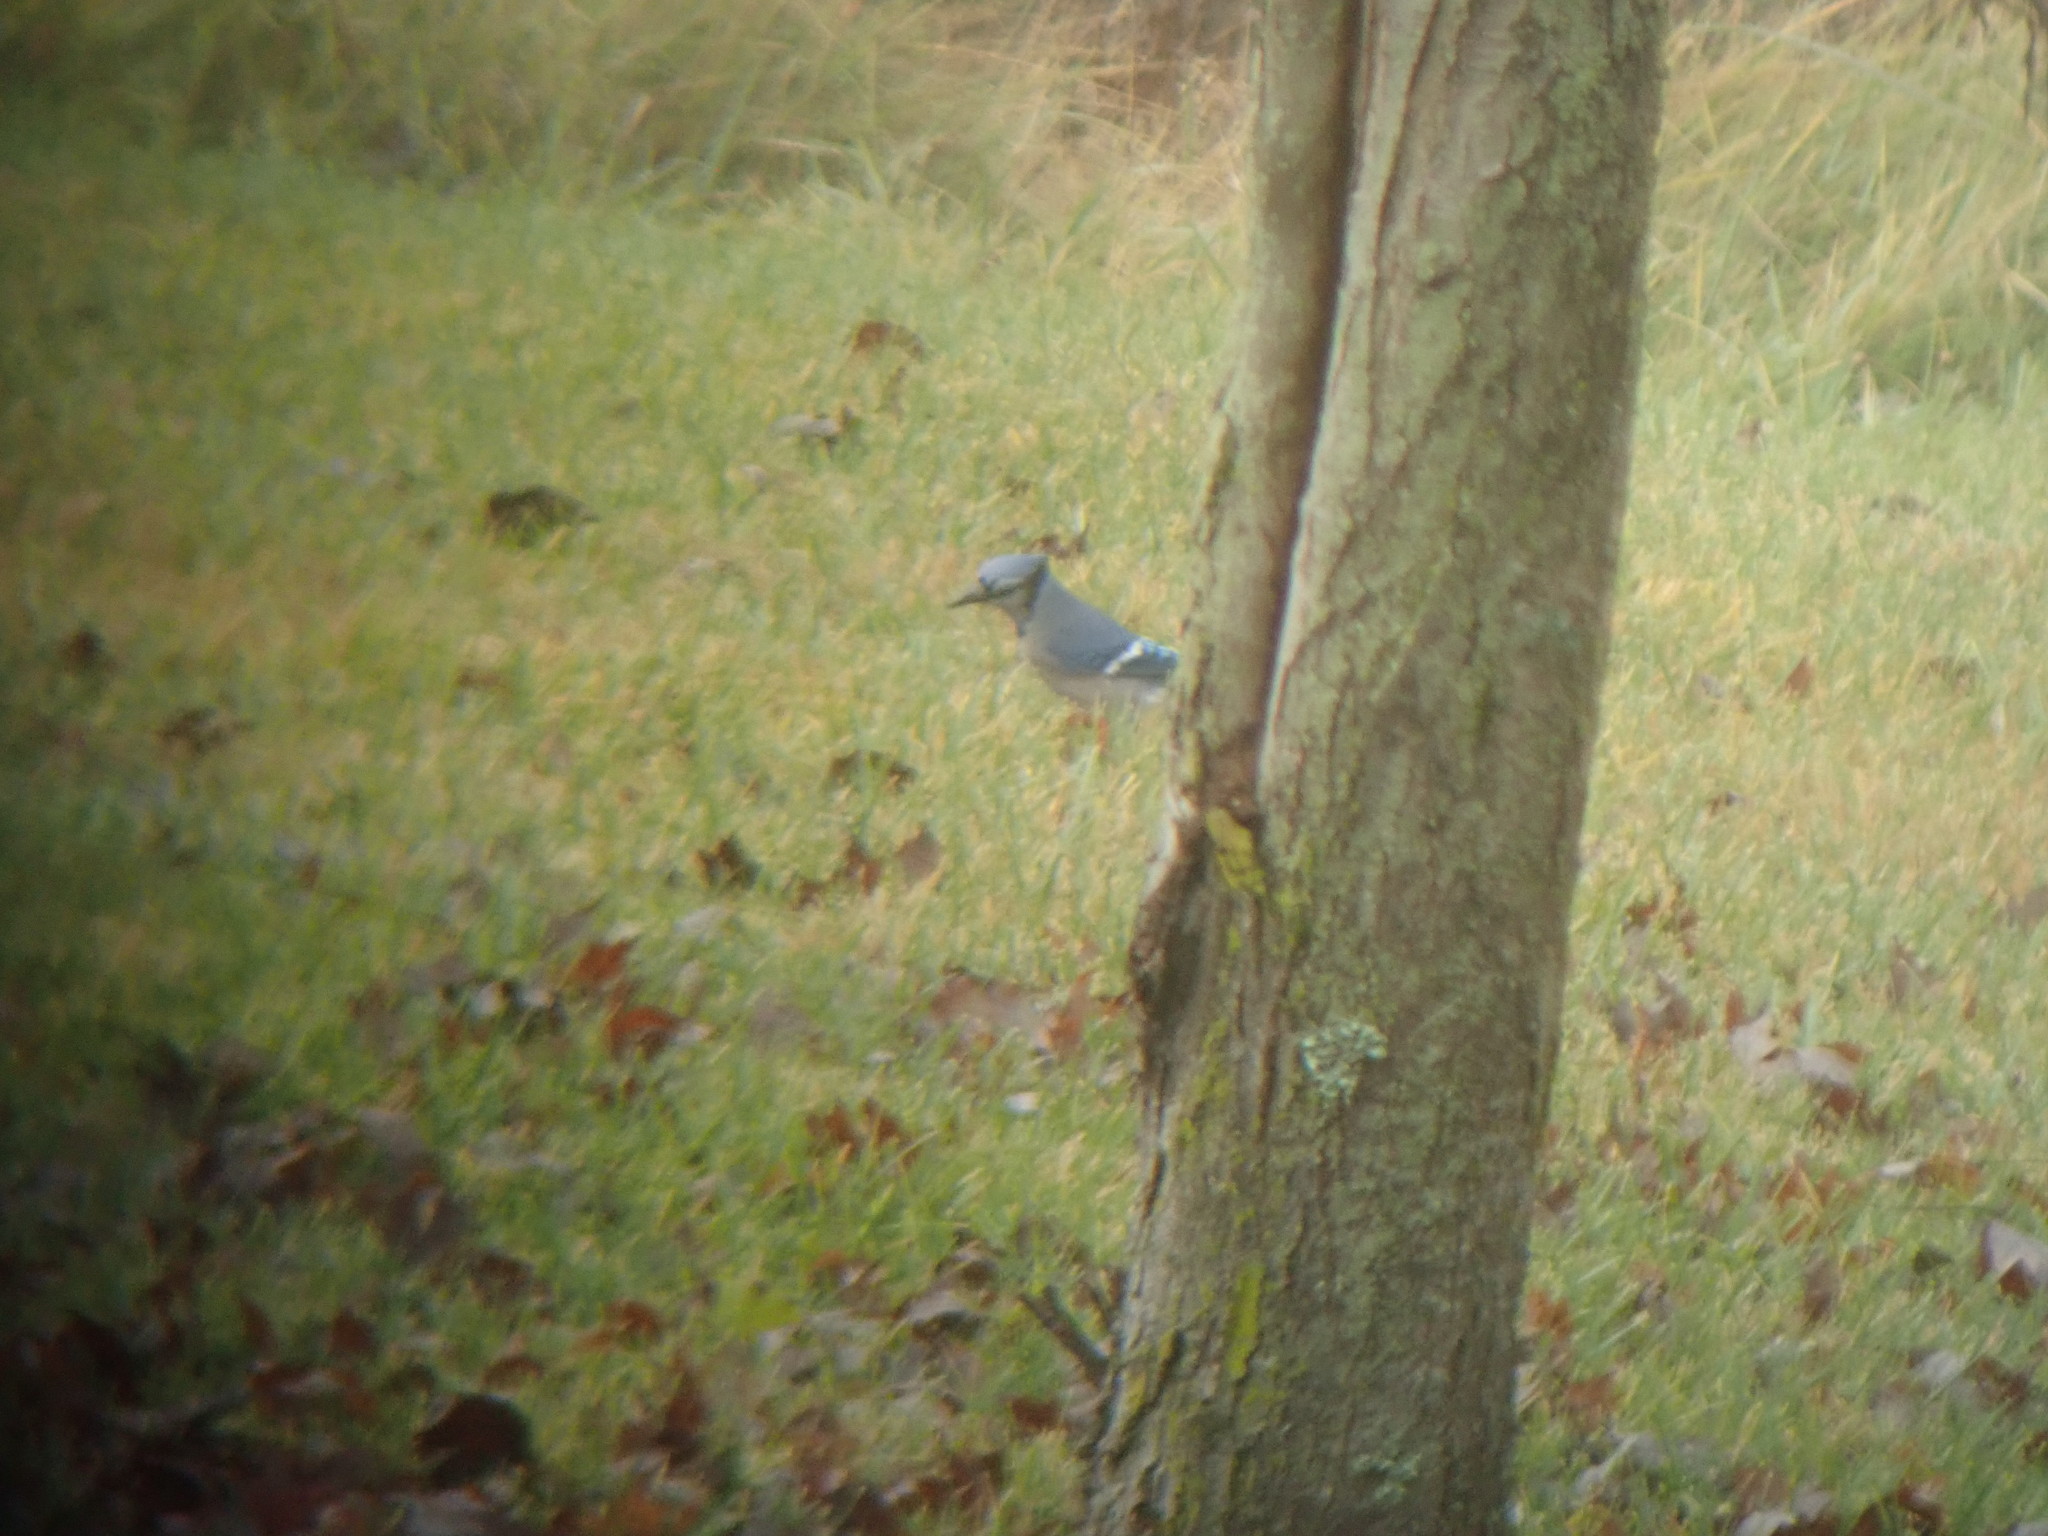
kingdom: Animalia
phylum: Chordata
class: Aves
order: Passeriformes
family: Corvidae
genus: Cyanocitta
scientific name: Cyanocitta cristata
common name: Blue jay
